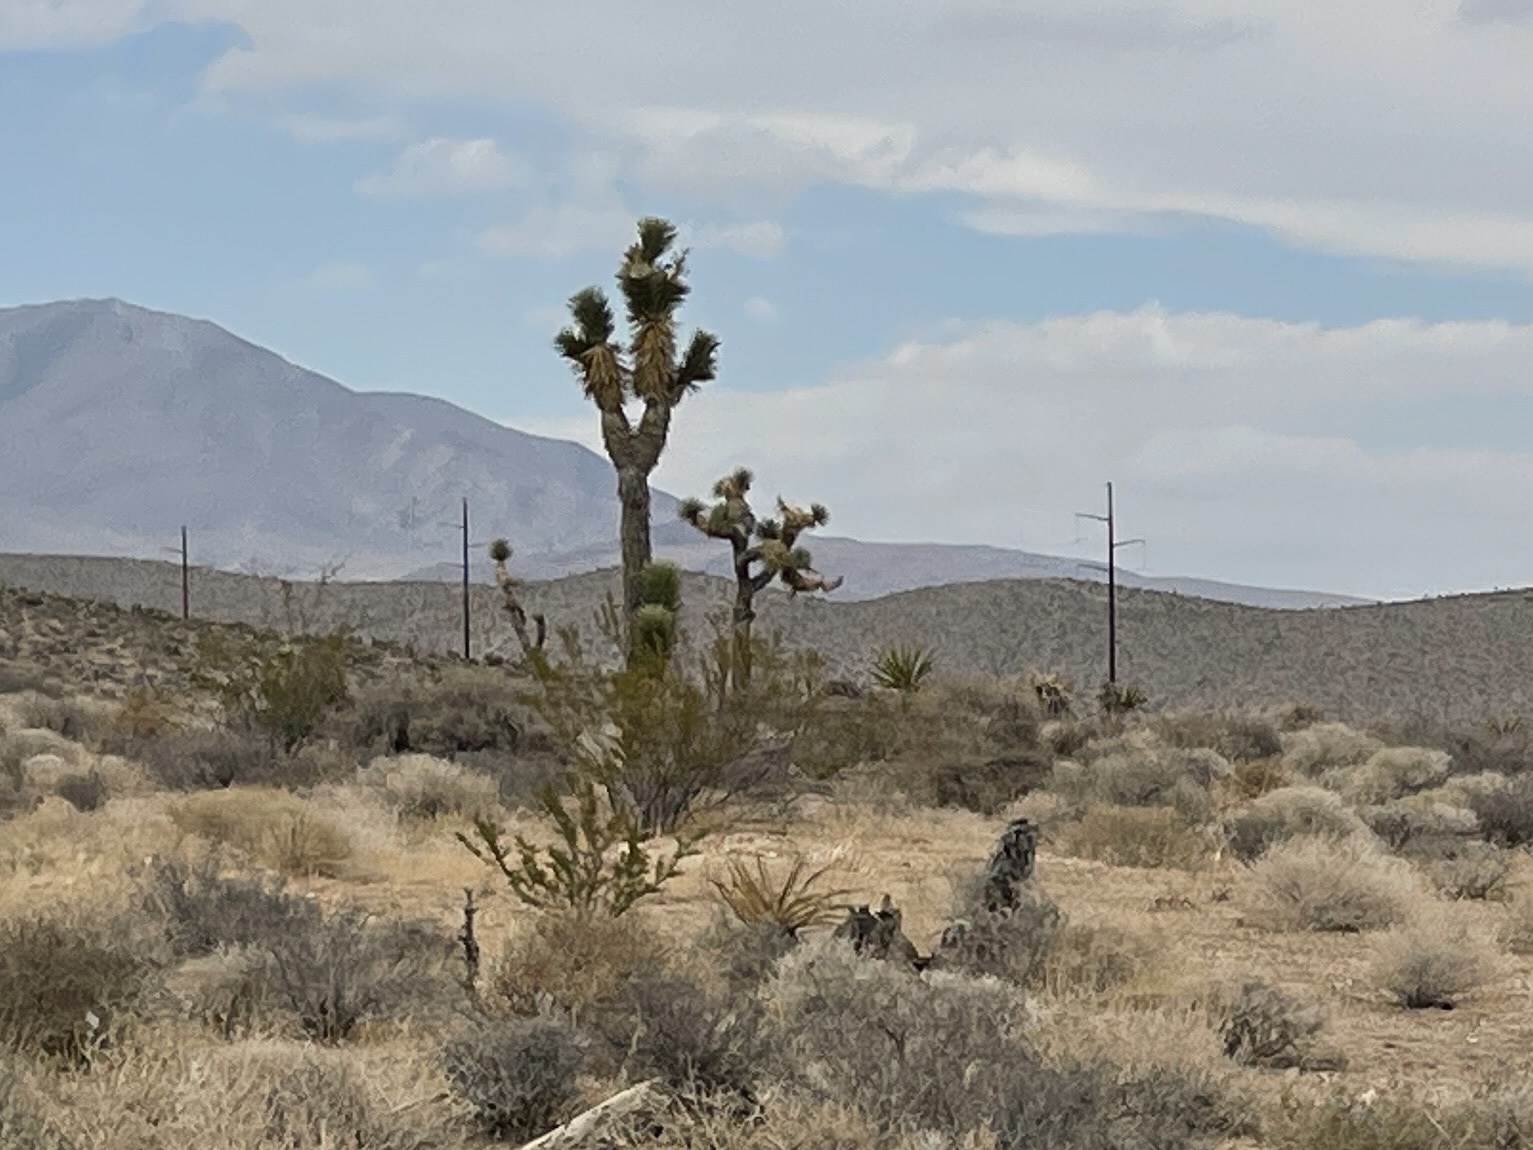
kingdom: Plantae
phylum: Tracheophyta
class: Liliopsida
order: Asparagales
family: Asparagaceae
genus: Yucca
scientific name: Yucca brevifolia
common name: Joshua tree
